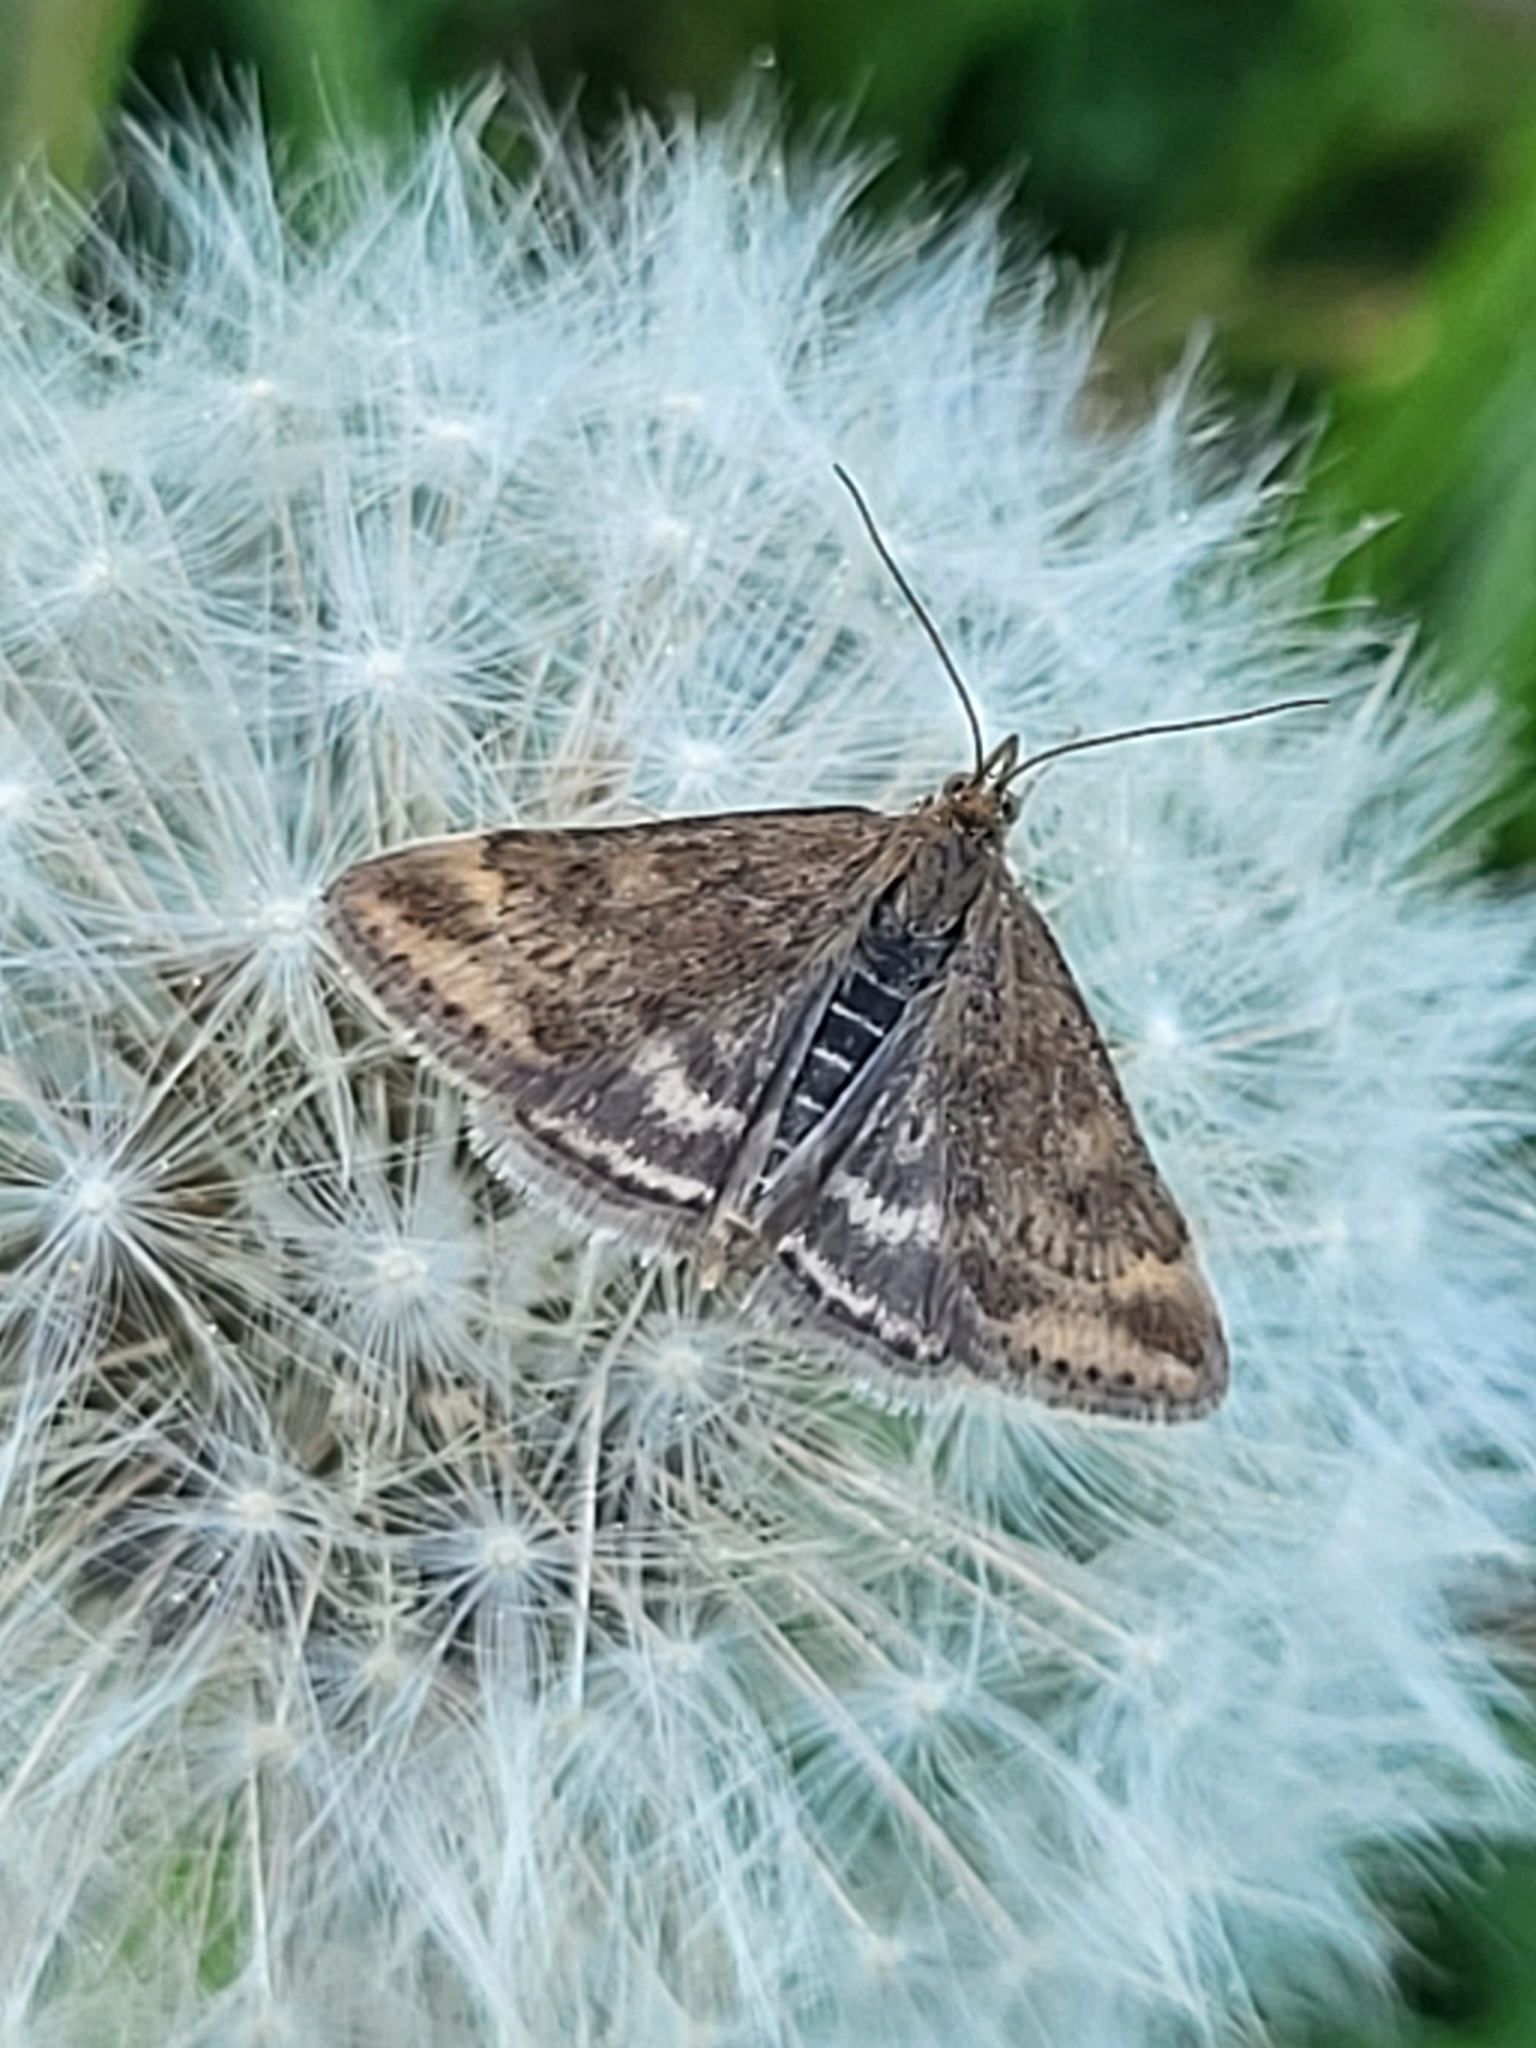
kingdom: Animalia
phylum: Arthropoda
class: Insecta
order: Lepidoptera
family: Crambidae
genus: Pyrausta
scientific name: Pyrausta despicata
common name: Straw-barred pearl
